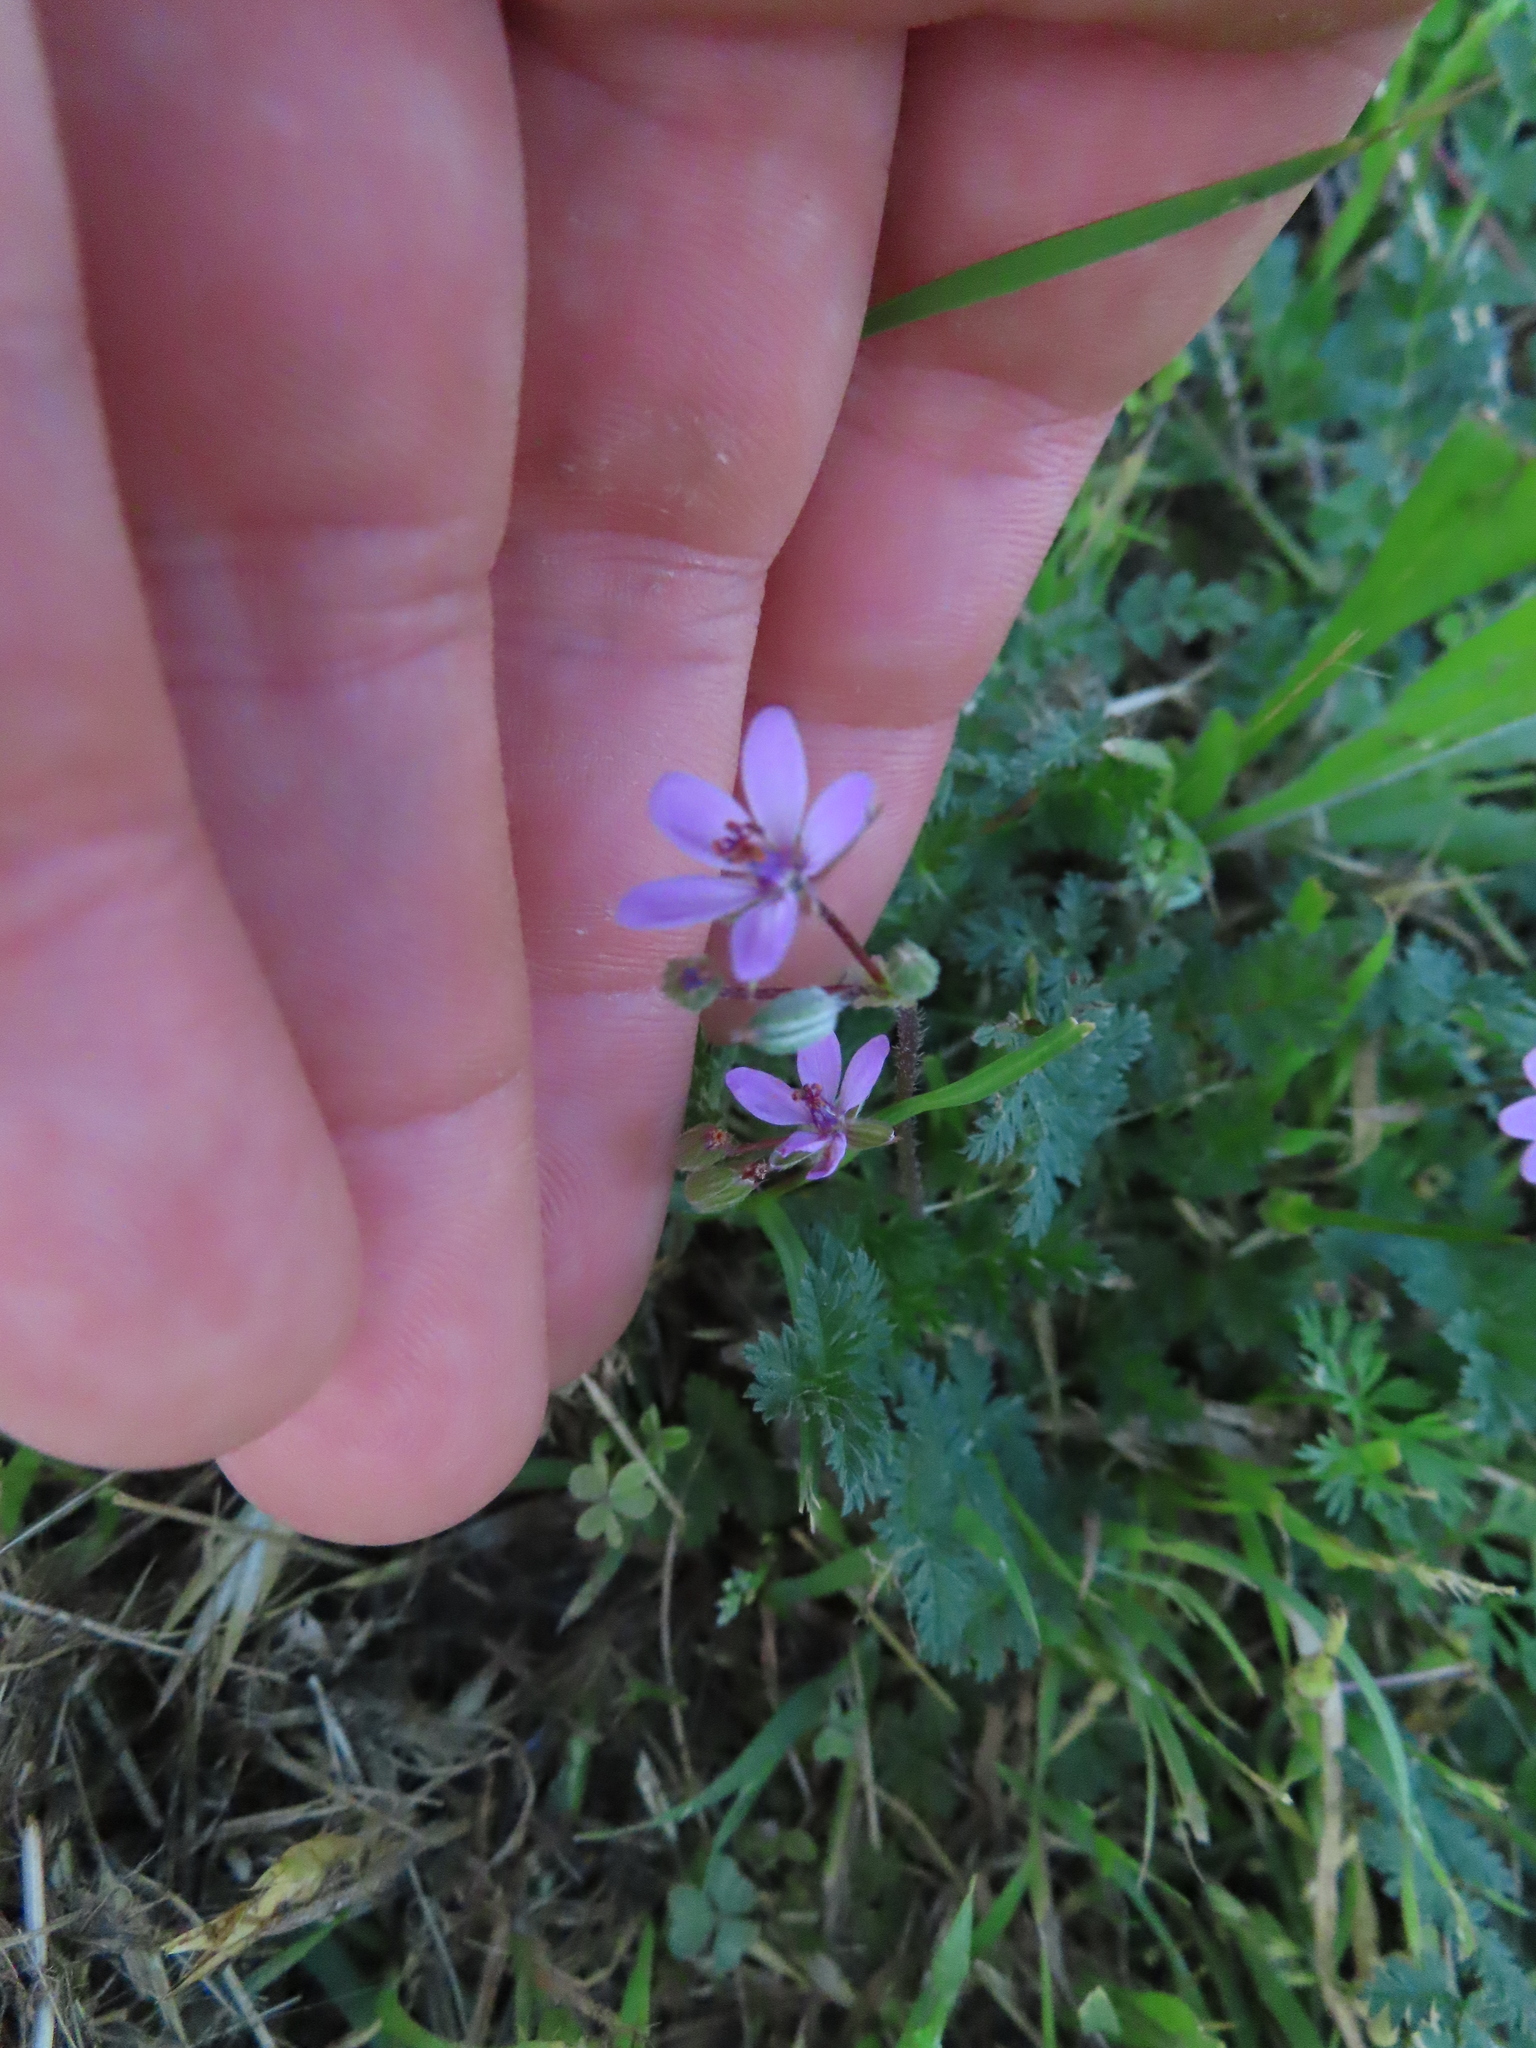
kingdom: Plantae
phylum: Tracheophyta
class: Magnoliopsida
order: Geraniales
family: Geraniaceae
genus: Erodium
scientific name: Erodium cicutarium
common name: Common stork's-bill
